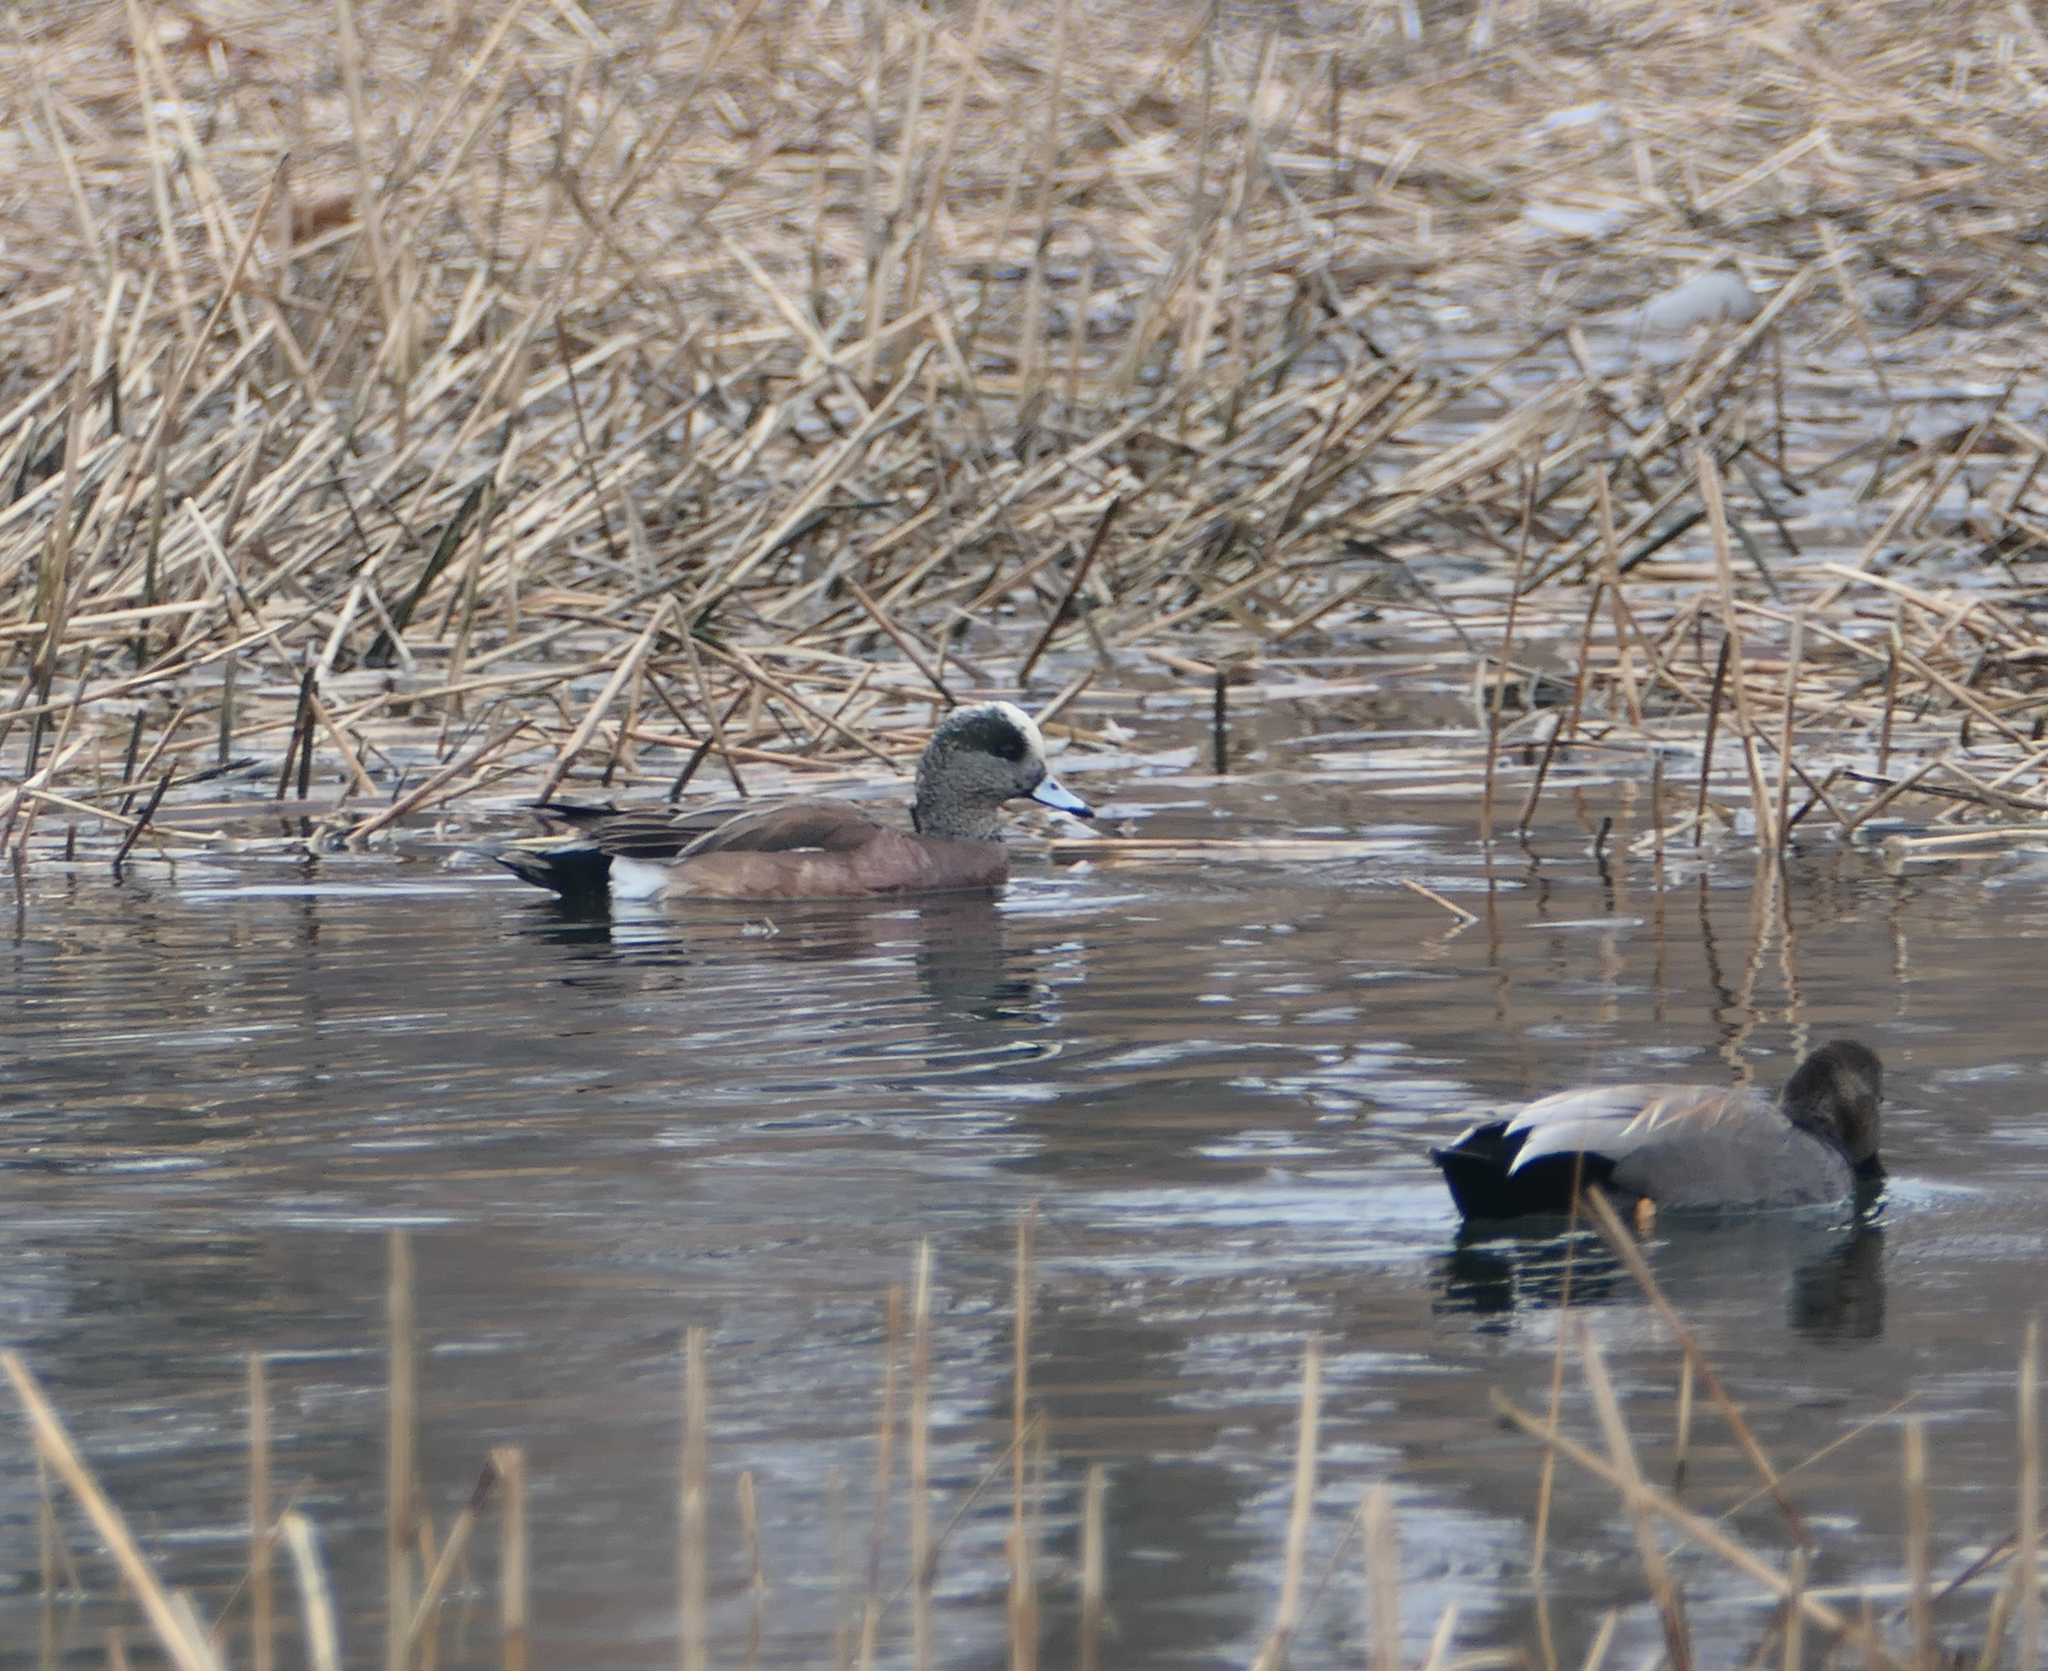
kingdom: Animalia
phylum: Chordata
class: Aves
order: Anseriformes
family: Anatidae
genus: Mareca
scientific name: Mareca americana
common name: American wigeon
